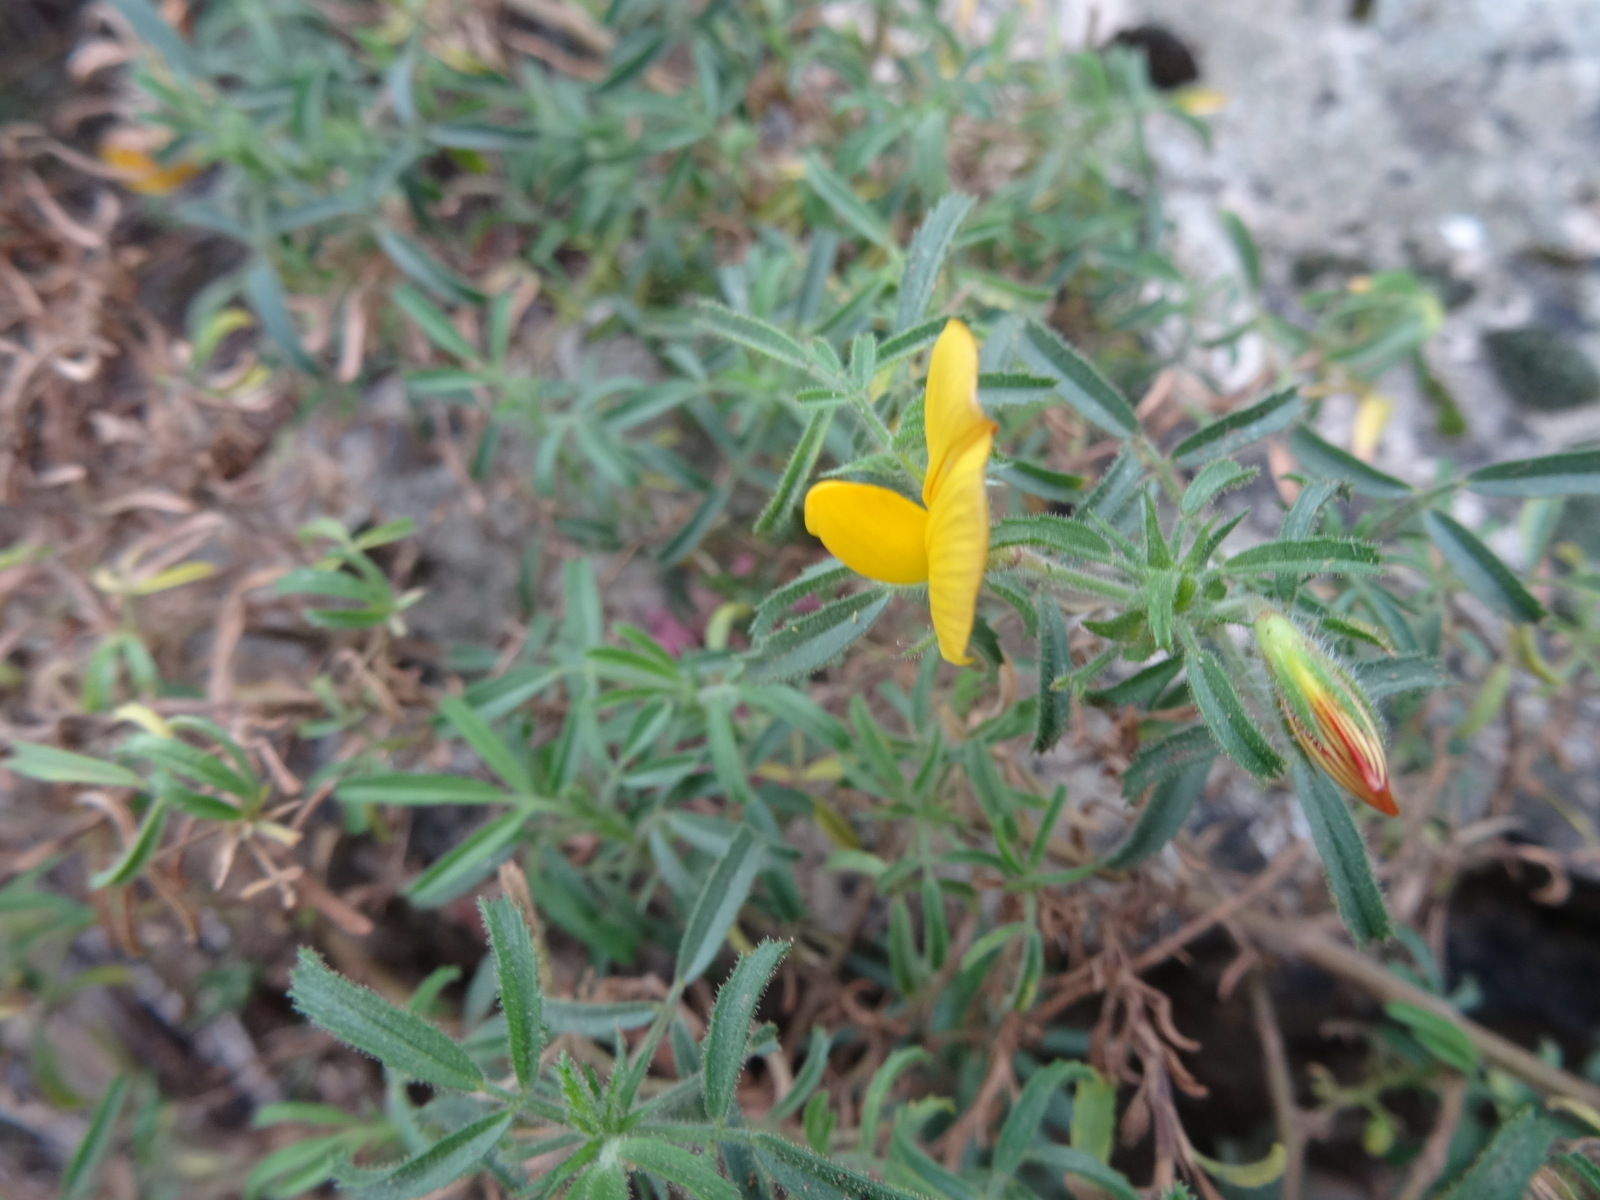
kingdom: Plantae
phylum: Tracheophyta
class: Magnoliopsida
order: Fabales
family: Fabaceae
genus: Ononis
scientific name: Ononis natrix
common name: Yellow restharrow
